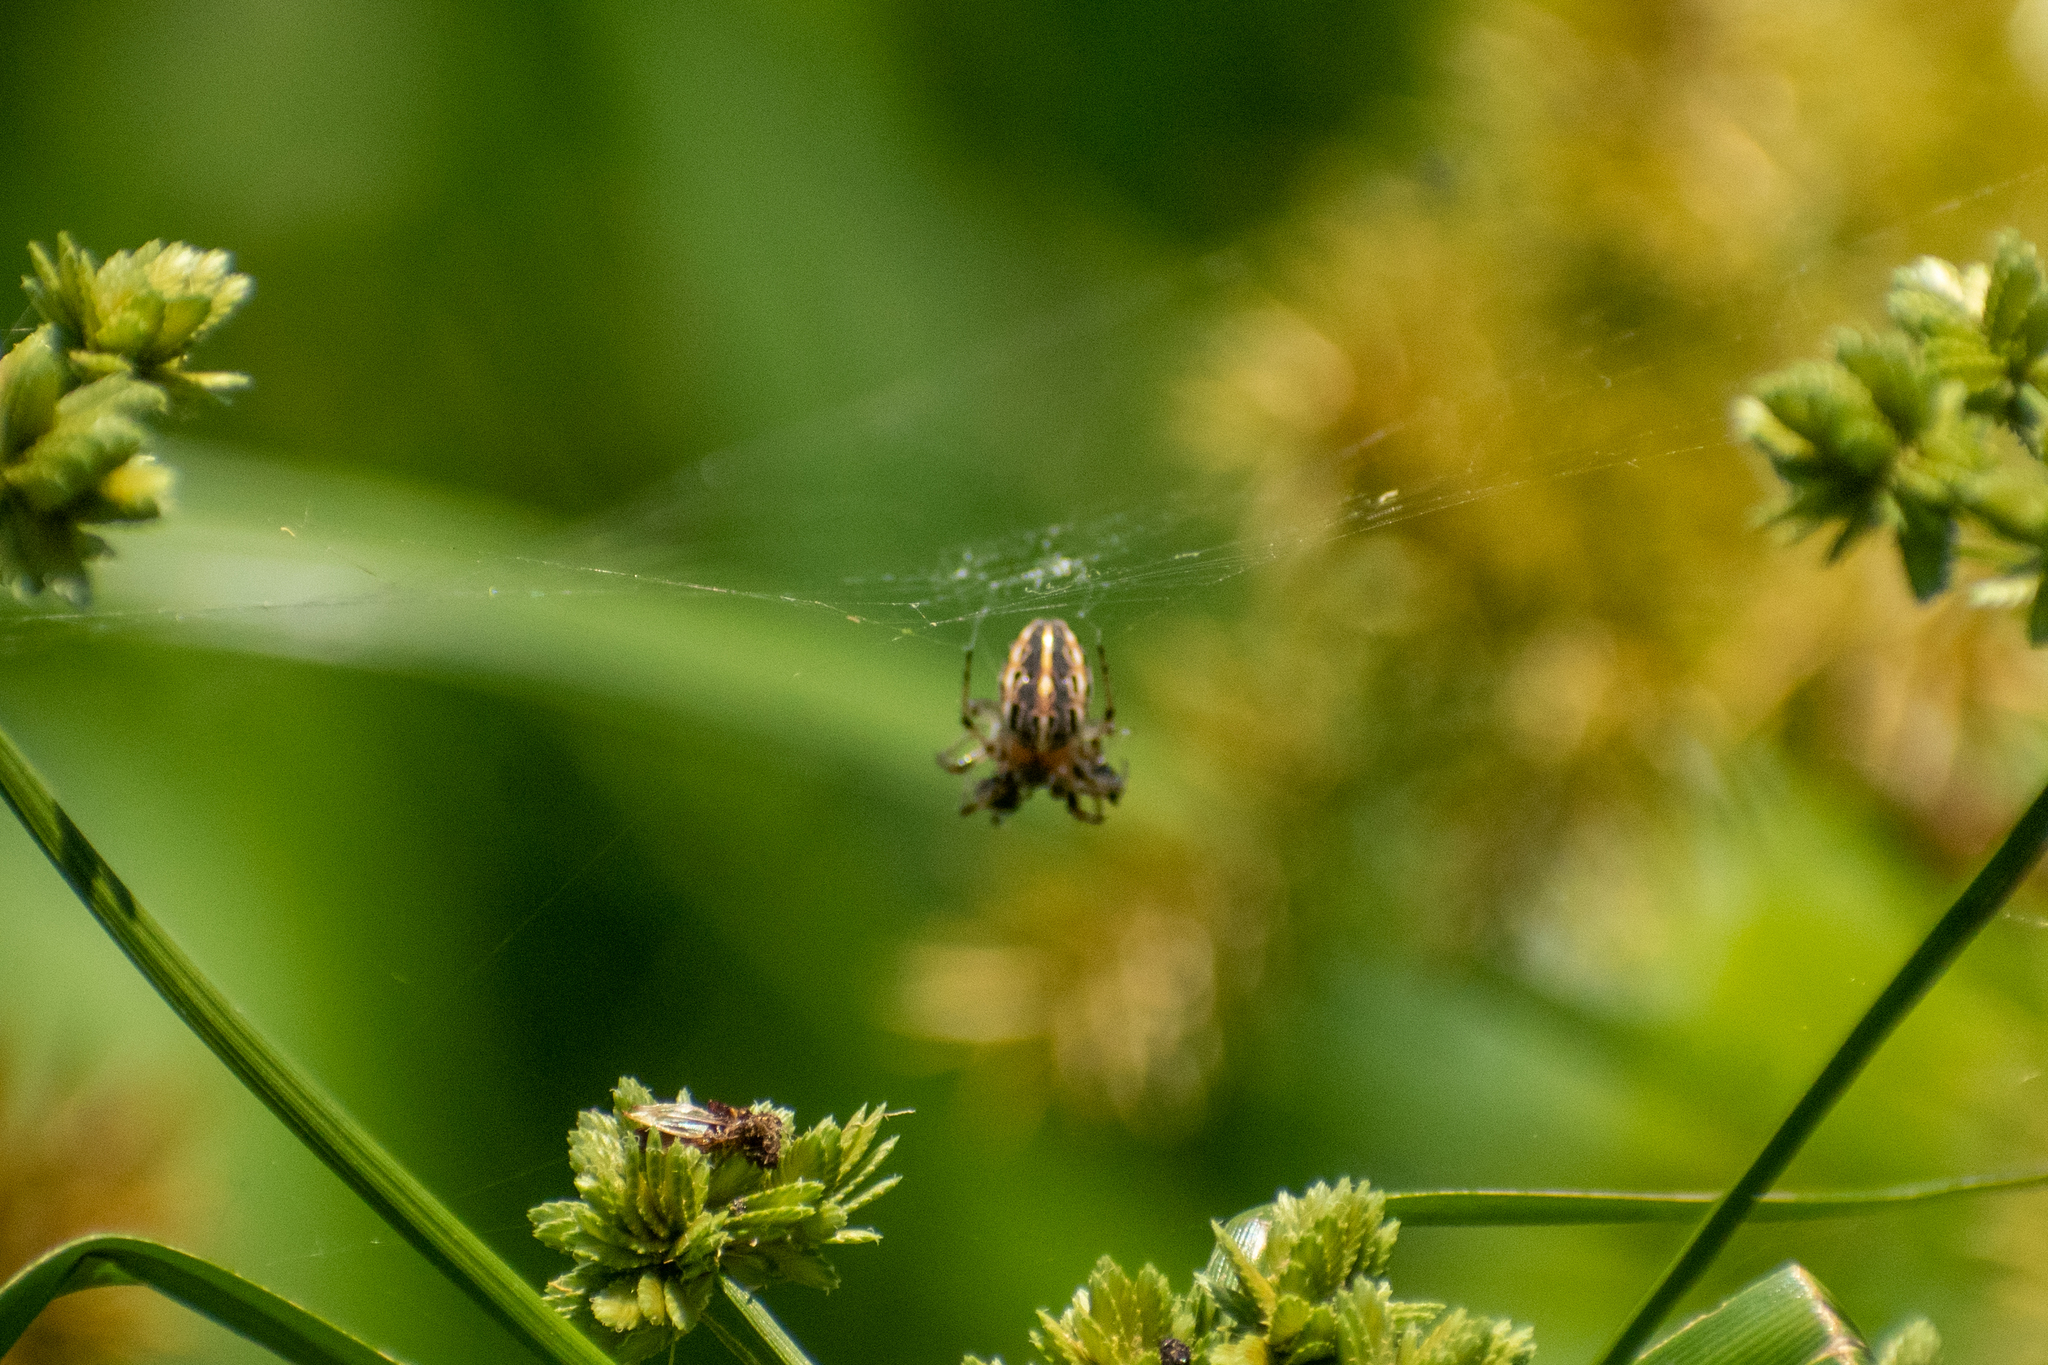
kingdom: Animalia
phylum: Arthropoda
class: Arachnida
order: Araneae
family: Araneidae
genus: Alpaida
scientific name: Alpaida veniliae
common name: Orb weavers
